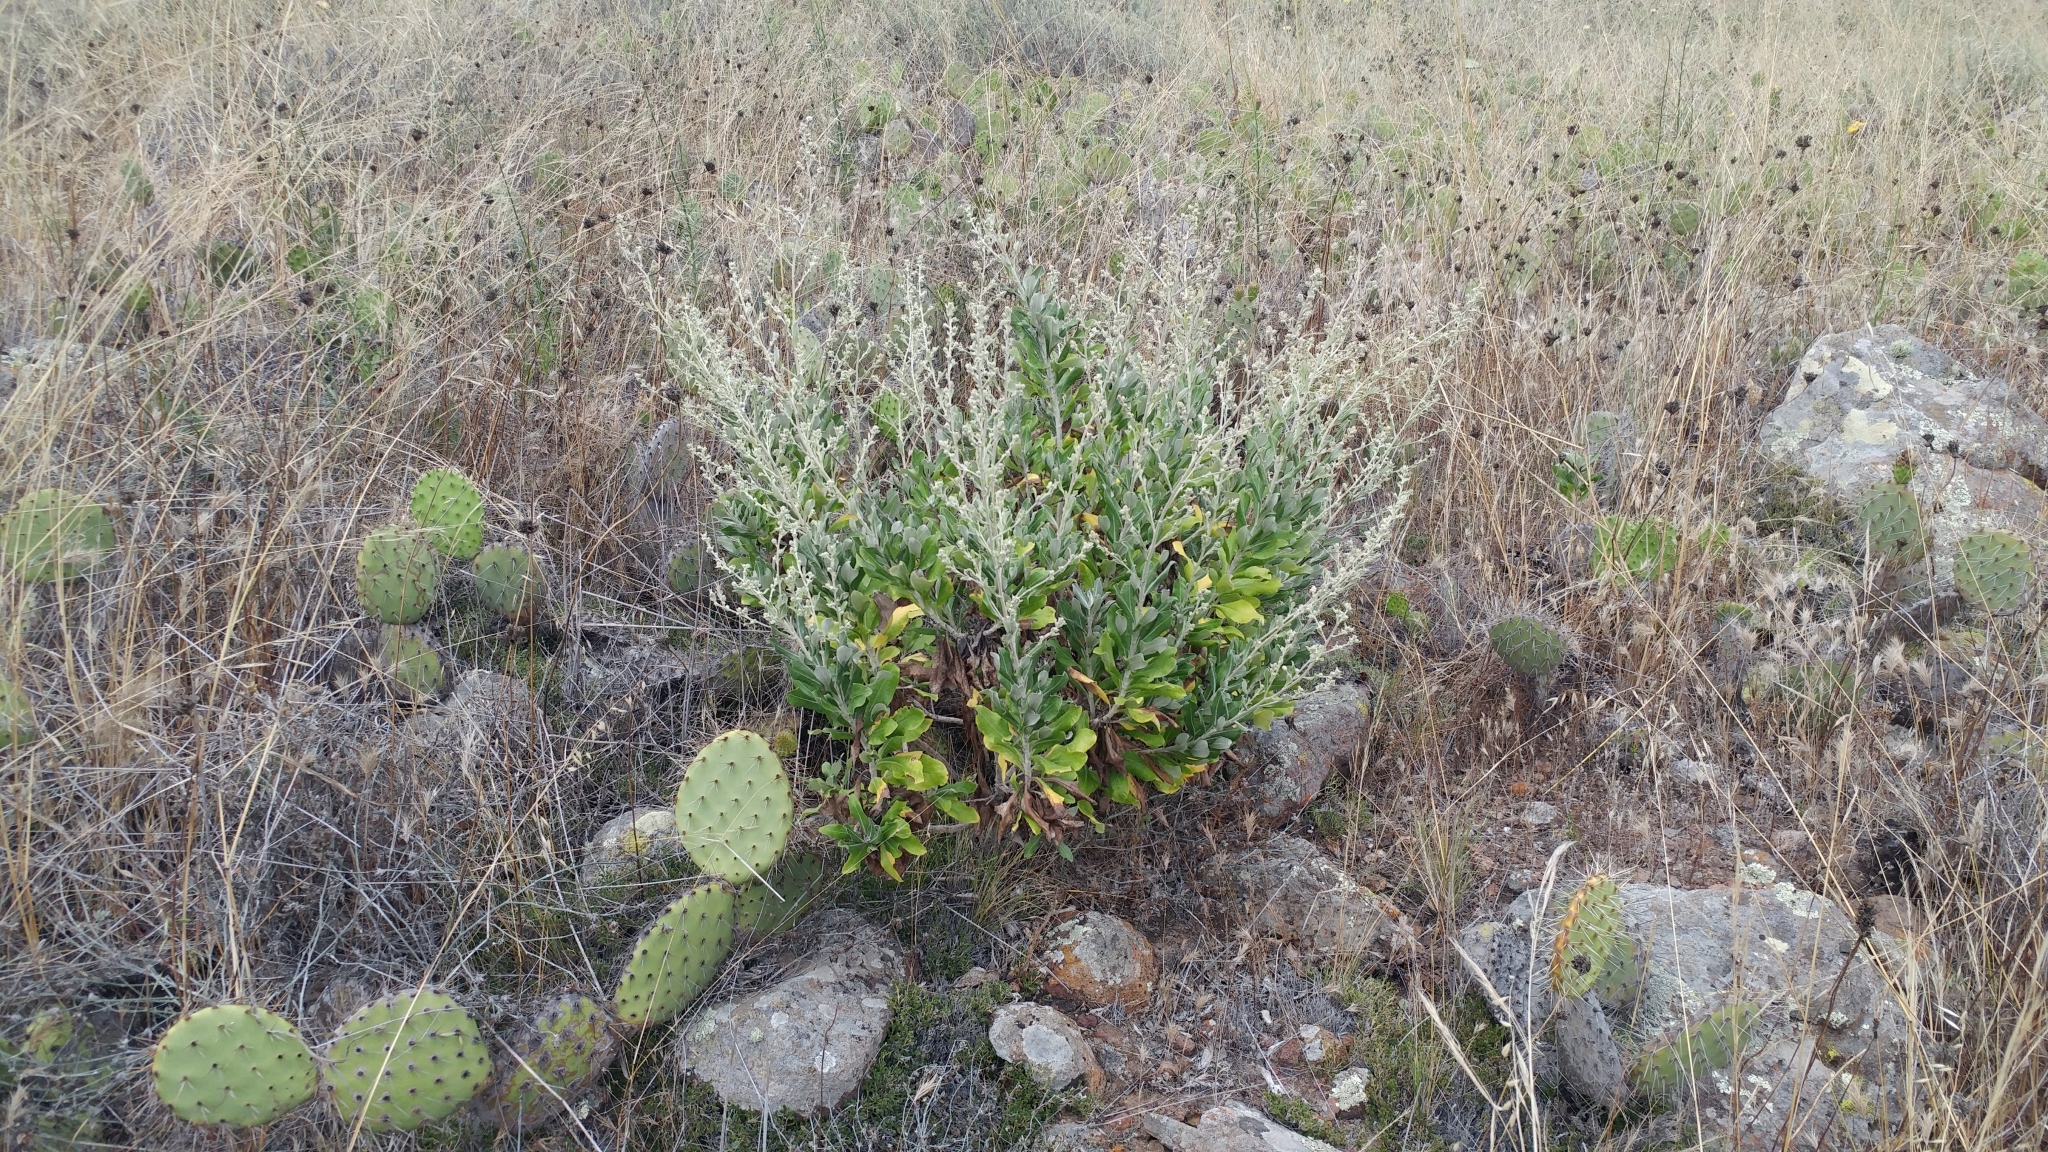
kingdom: Plantae
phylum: Tracheophyta
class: Magnoliopsida
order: Asterales
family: Asteraceae
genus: Hazardia
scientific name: Hazardia cana
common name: San clemente island bristleweed
